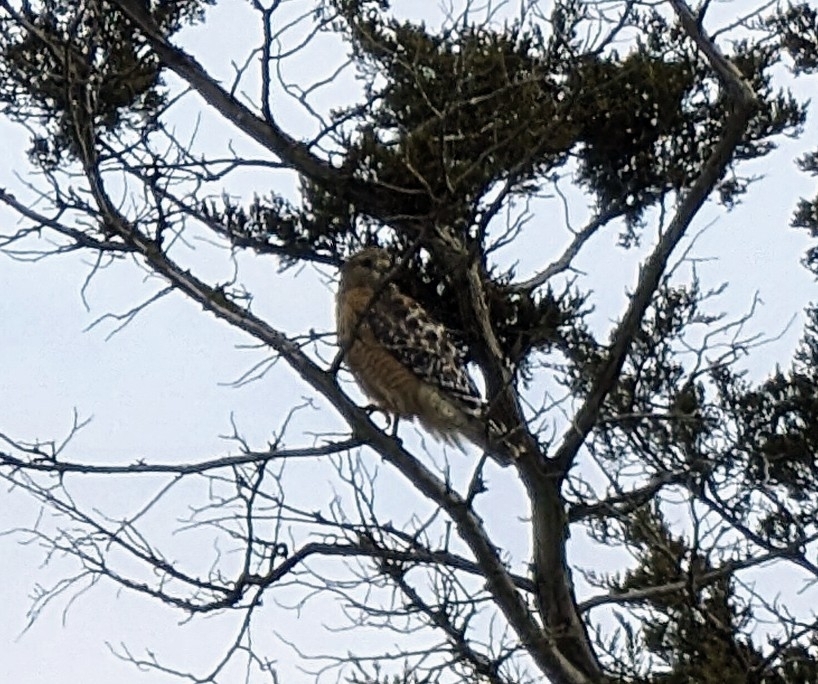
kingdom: Animalia
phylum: Chordata
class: Aves
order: Accipitriformes
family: Accipitridae
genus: Buteo
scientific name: Buteo lineatus
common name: Red-shouldered hawk
